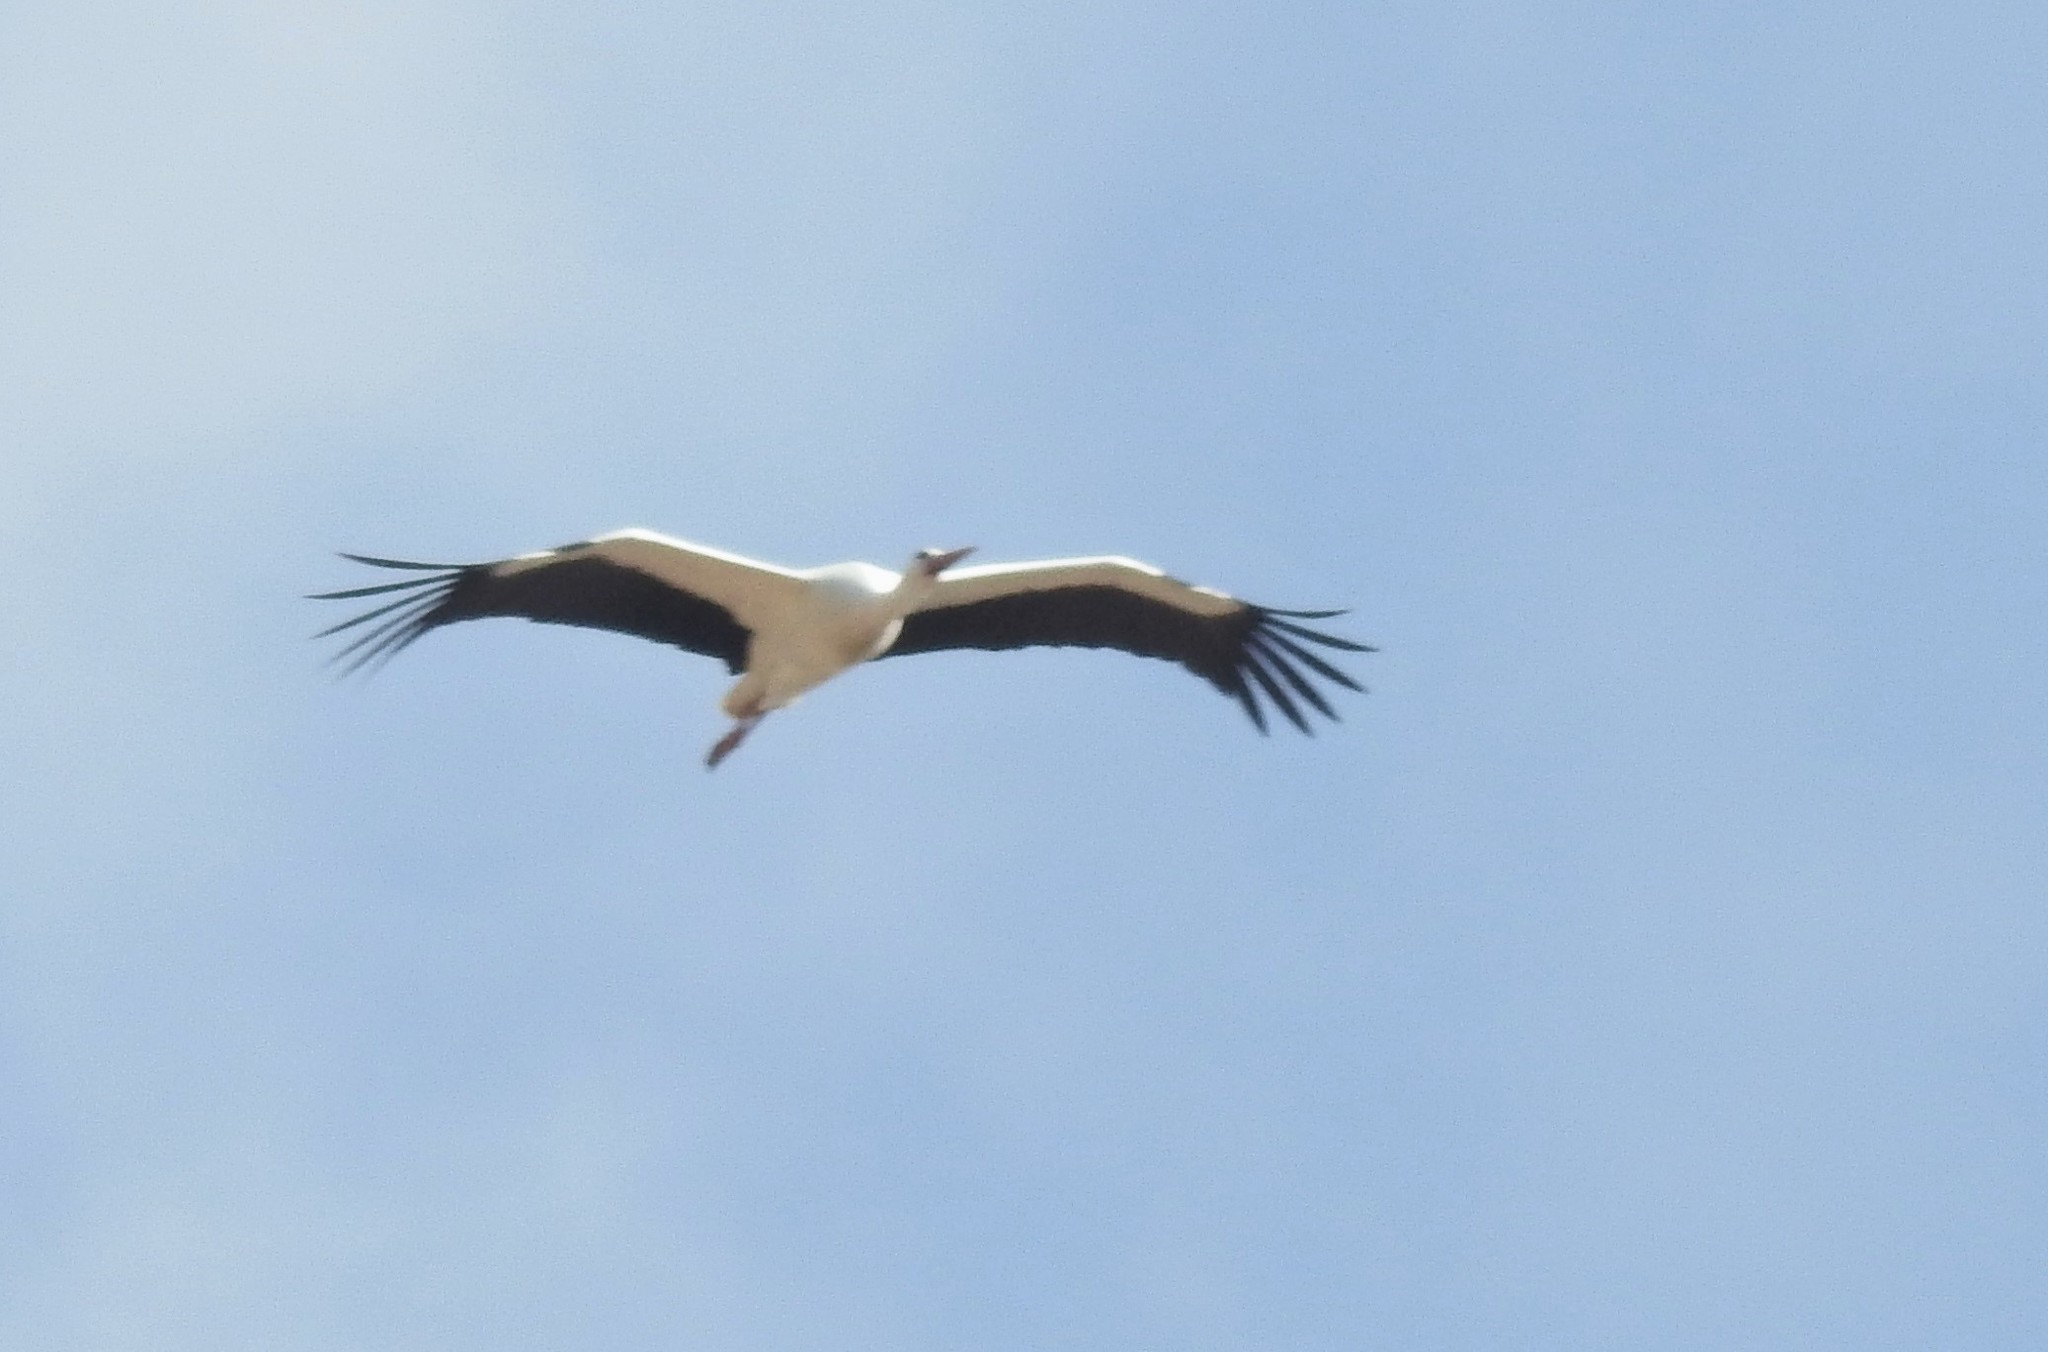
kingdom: Animalia
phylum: Chordata
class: Aves
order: Ciconiiformes
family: Ciconiidae
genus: Ciconia
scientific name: Ciconia ciconia
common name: White stork
